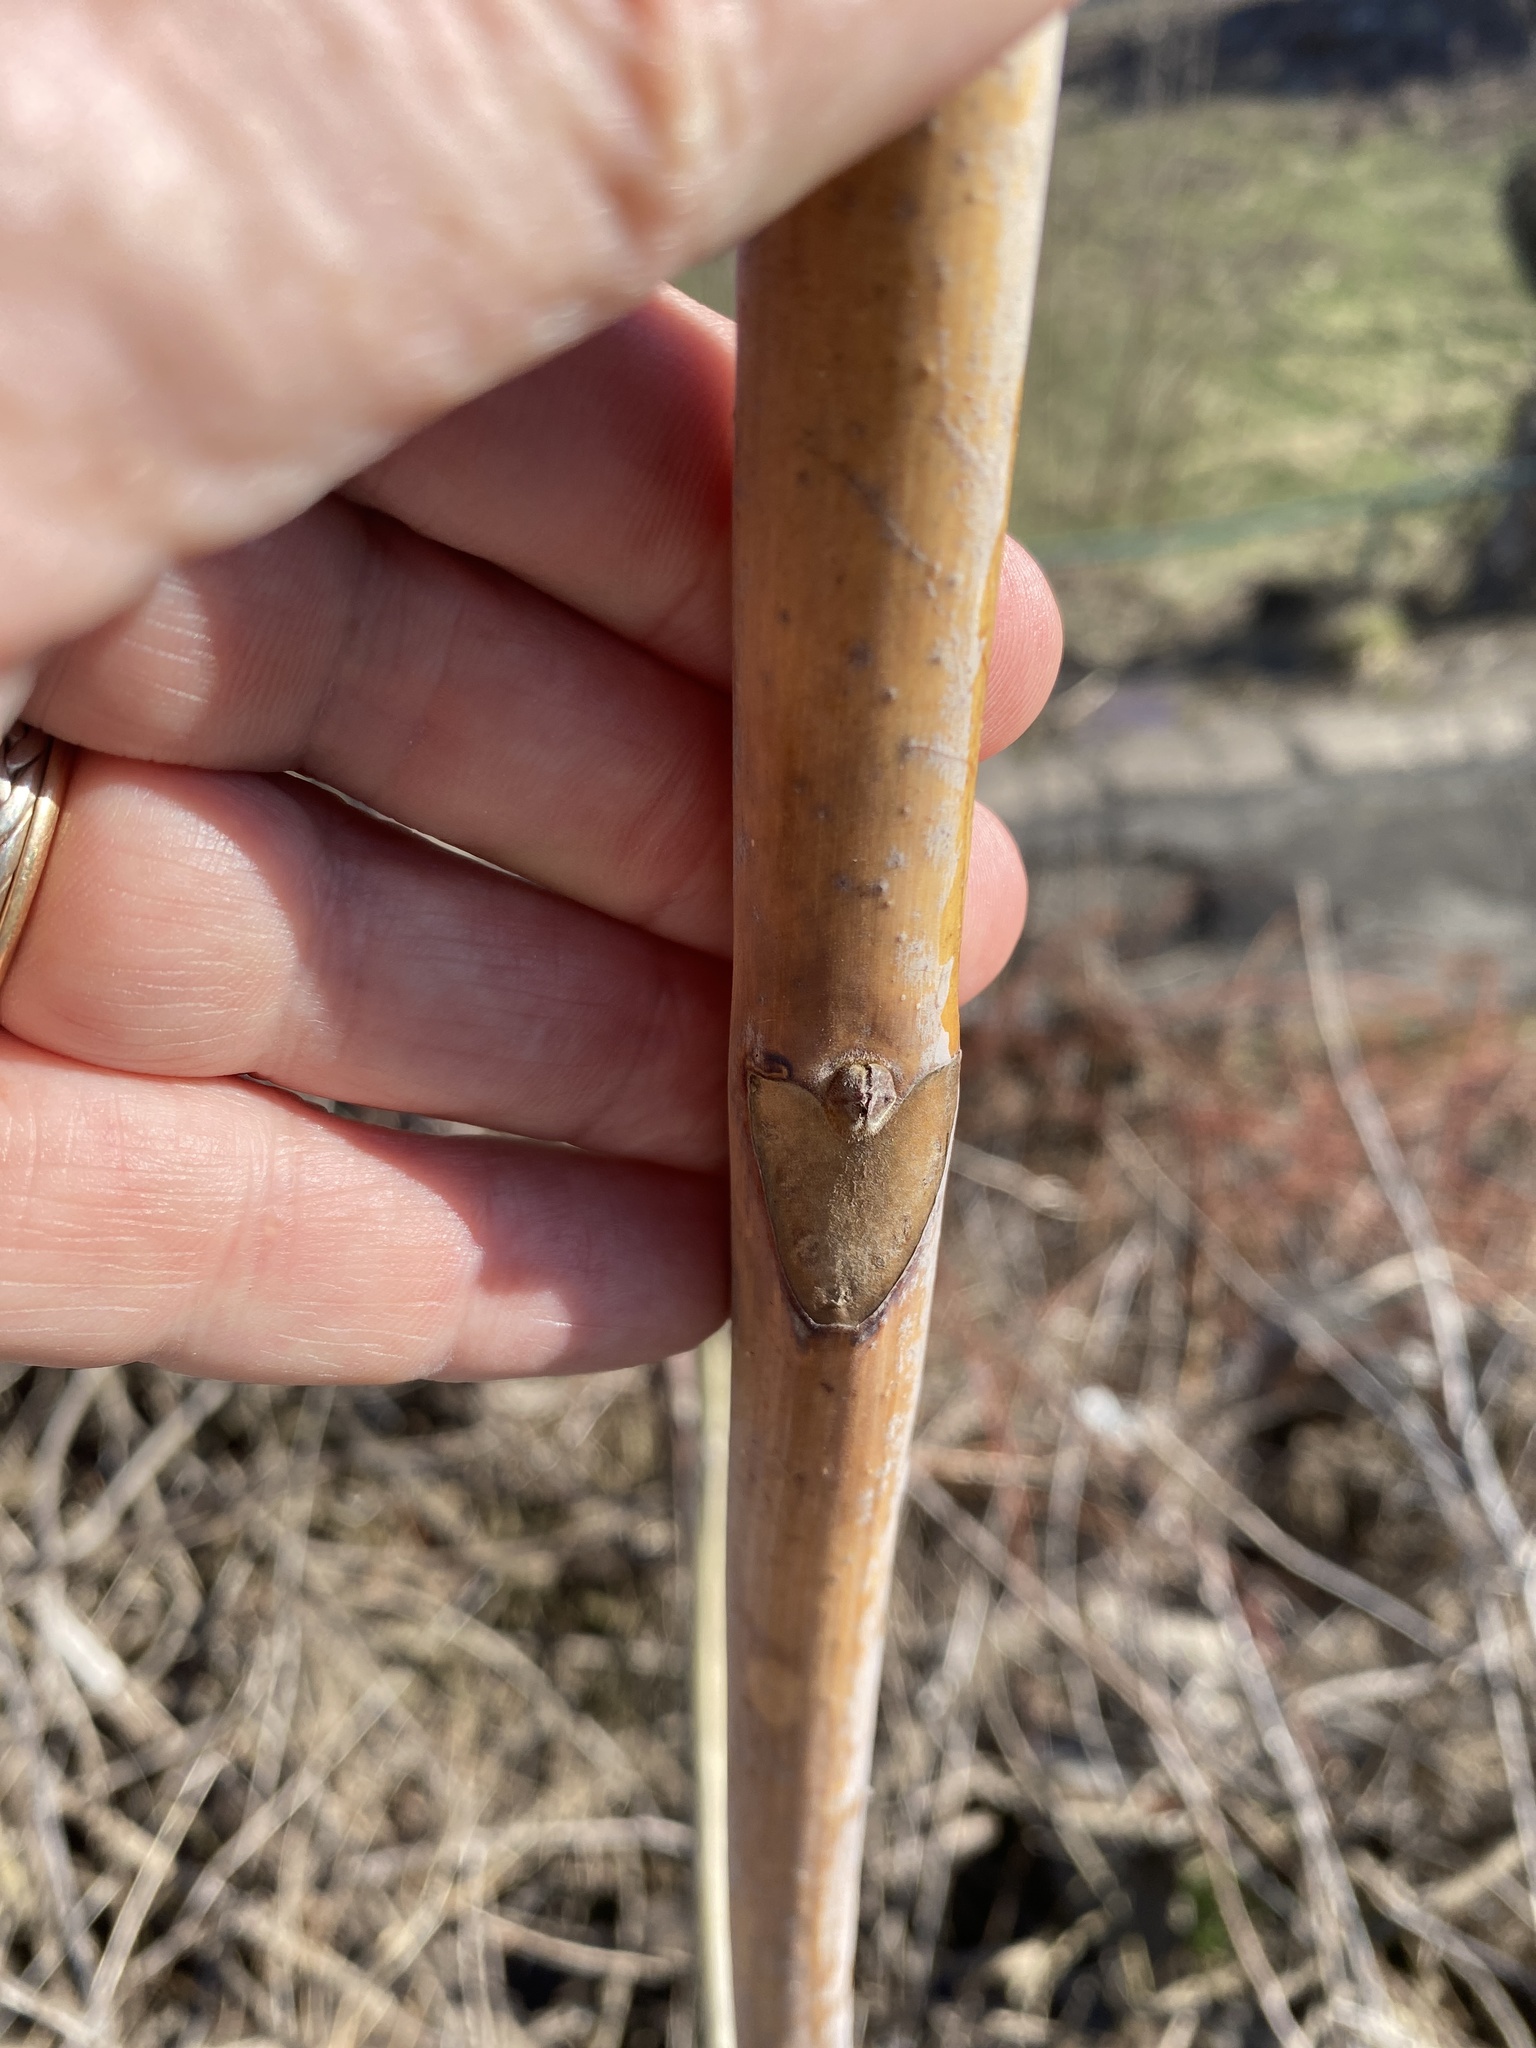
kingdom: Plantae
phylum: Tracheophyta
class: Magnoliopsida
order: Sapindales
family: Simaroubaceae
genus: Ailanthus
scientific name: Ailanthus altissima
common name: Tree-of-heaven
